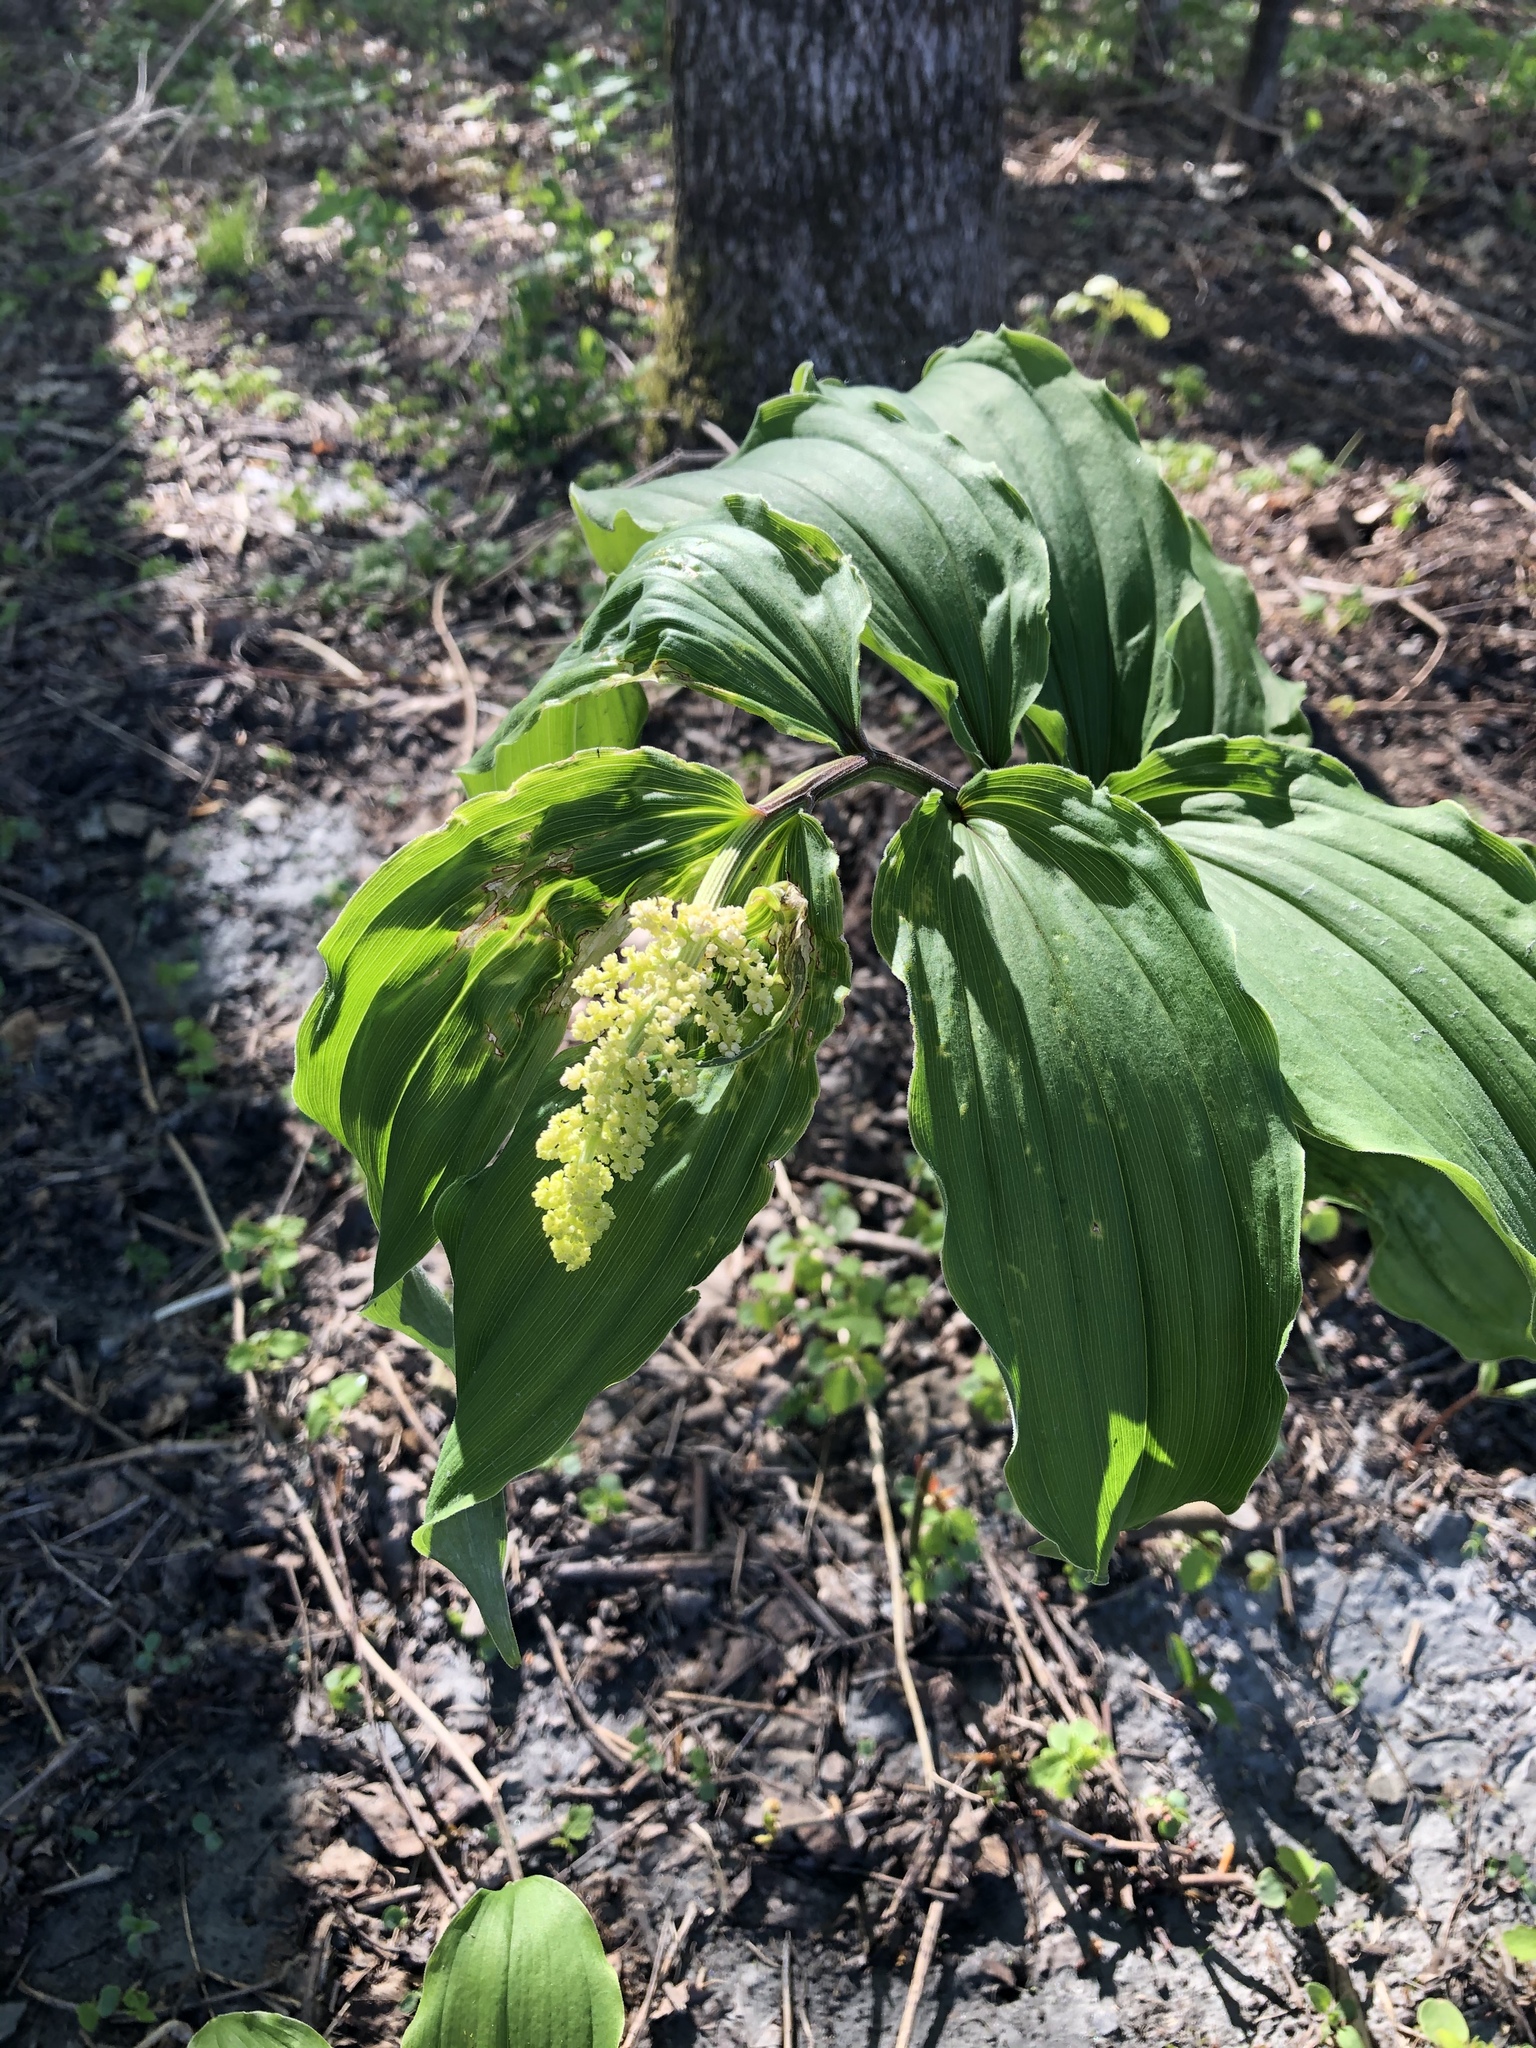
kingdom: Plantae
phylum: Tracheophyta
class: Liliopsida
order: Asparagales
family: Asparagaceae
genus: Maianthemum
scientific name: Maianthemum racemosum
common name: False spikenard
